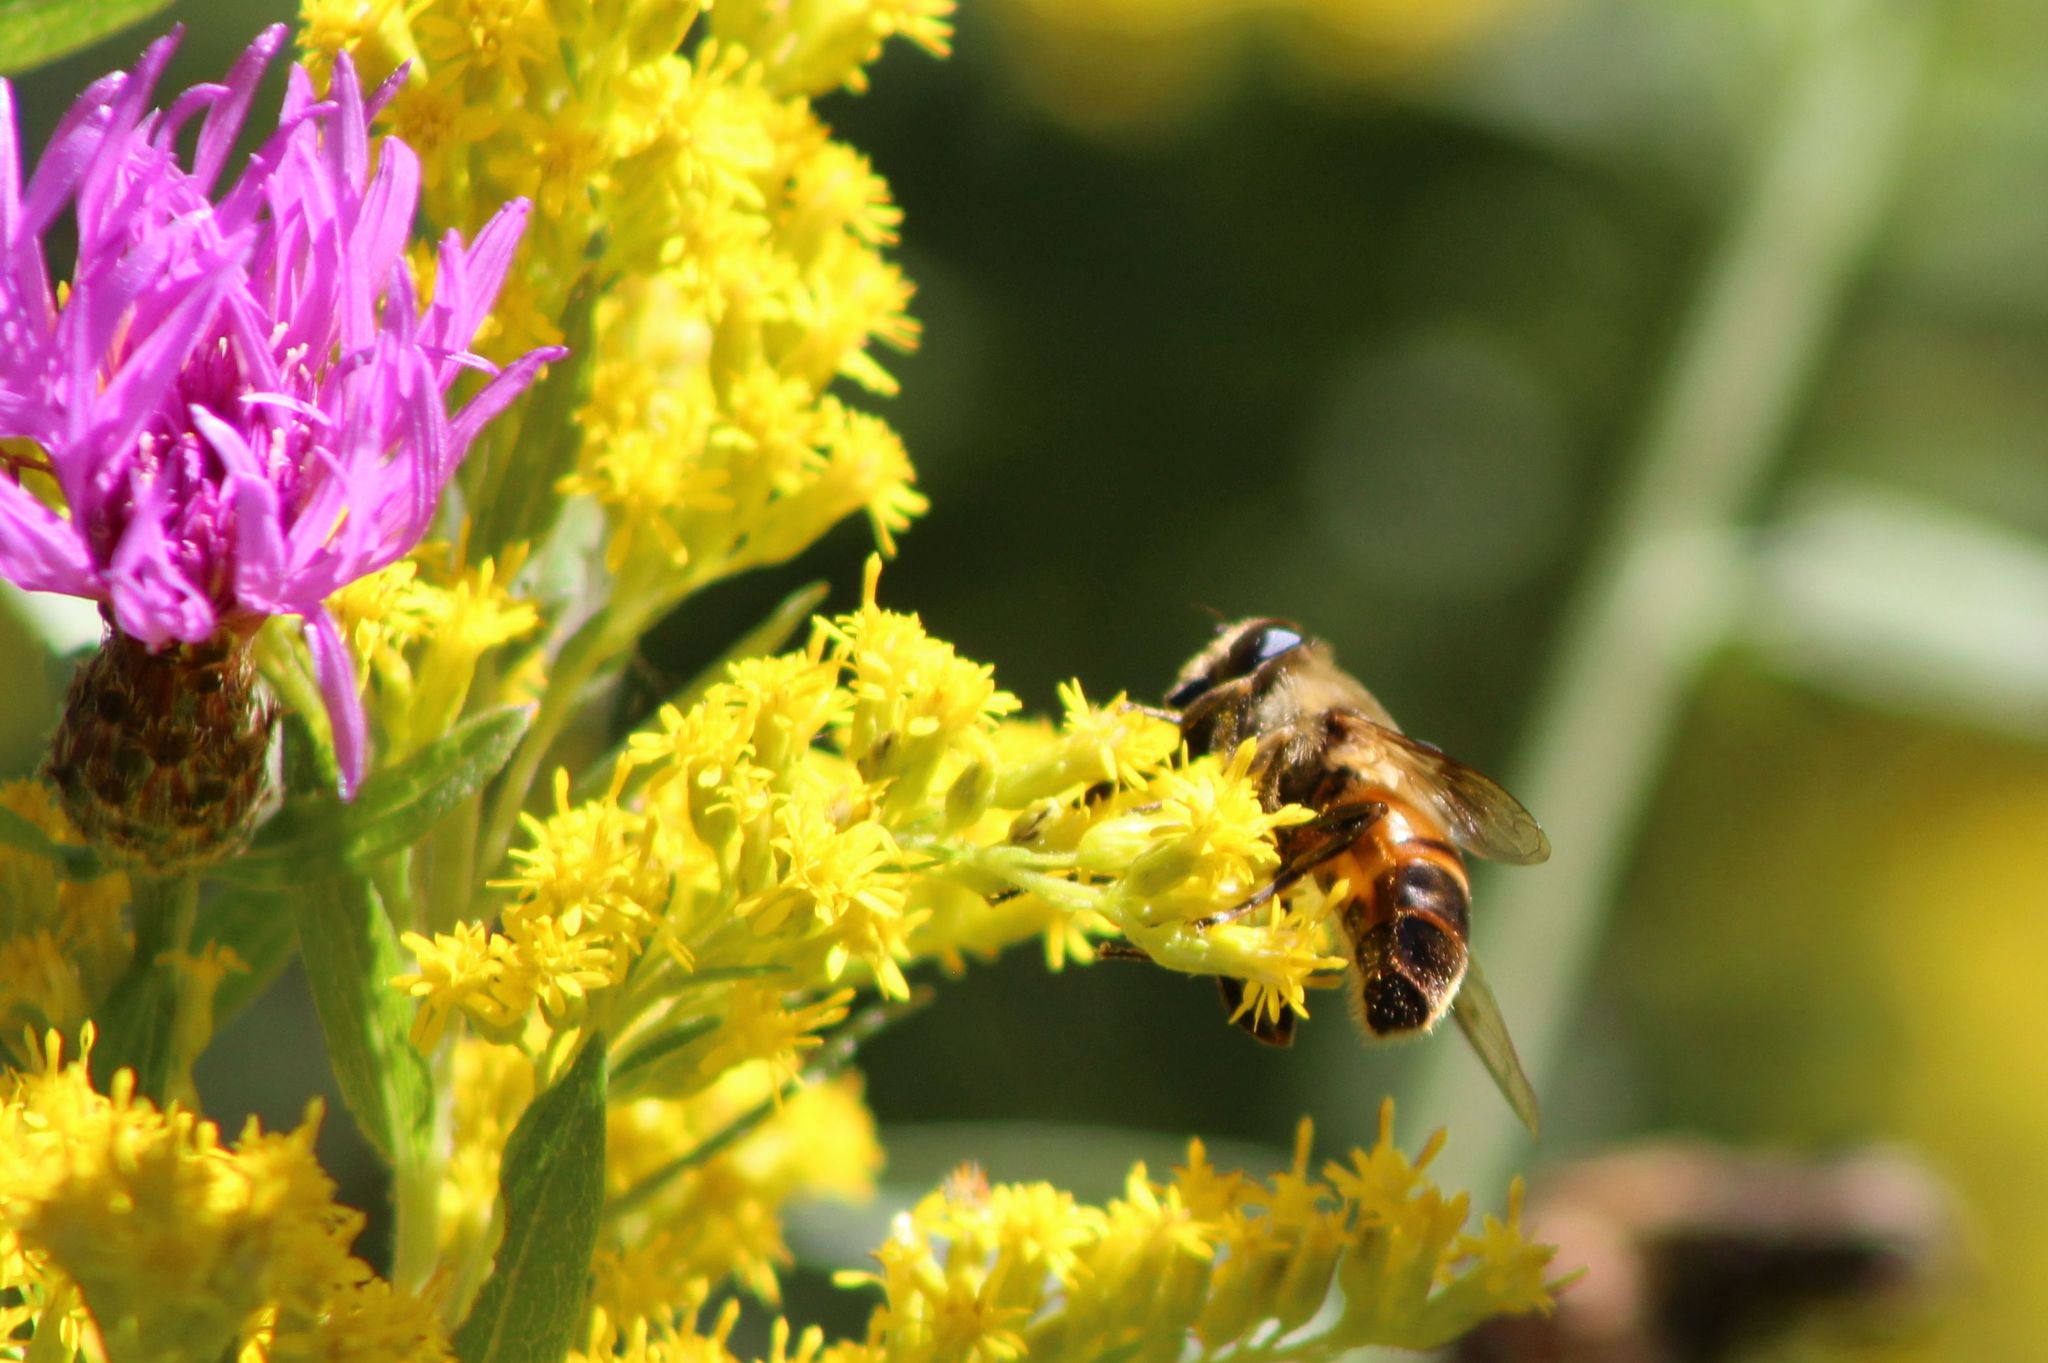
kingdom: Animalia
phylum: Arthropoda
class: Insecta
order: Diptera
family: Syrphidae
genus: Eristalis
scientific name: Eristalis tenax
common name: Drone fly
